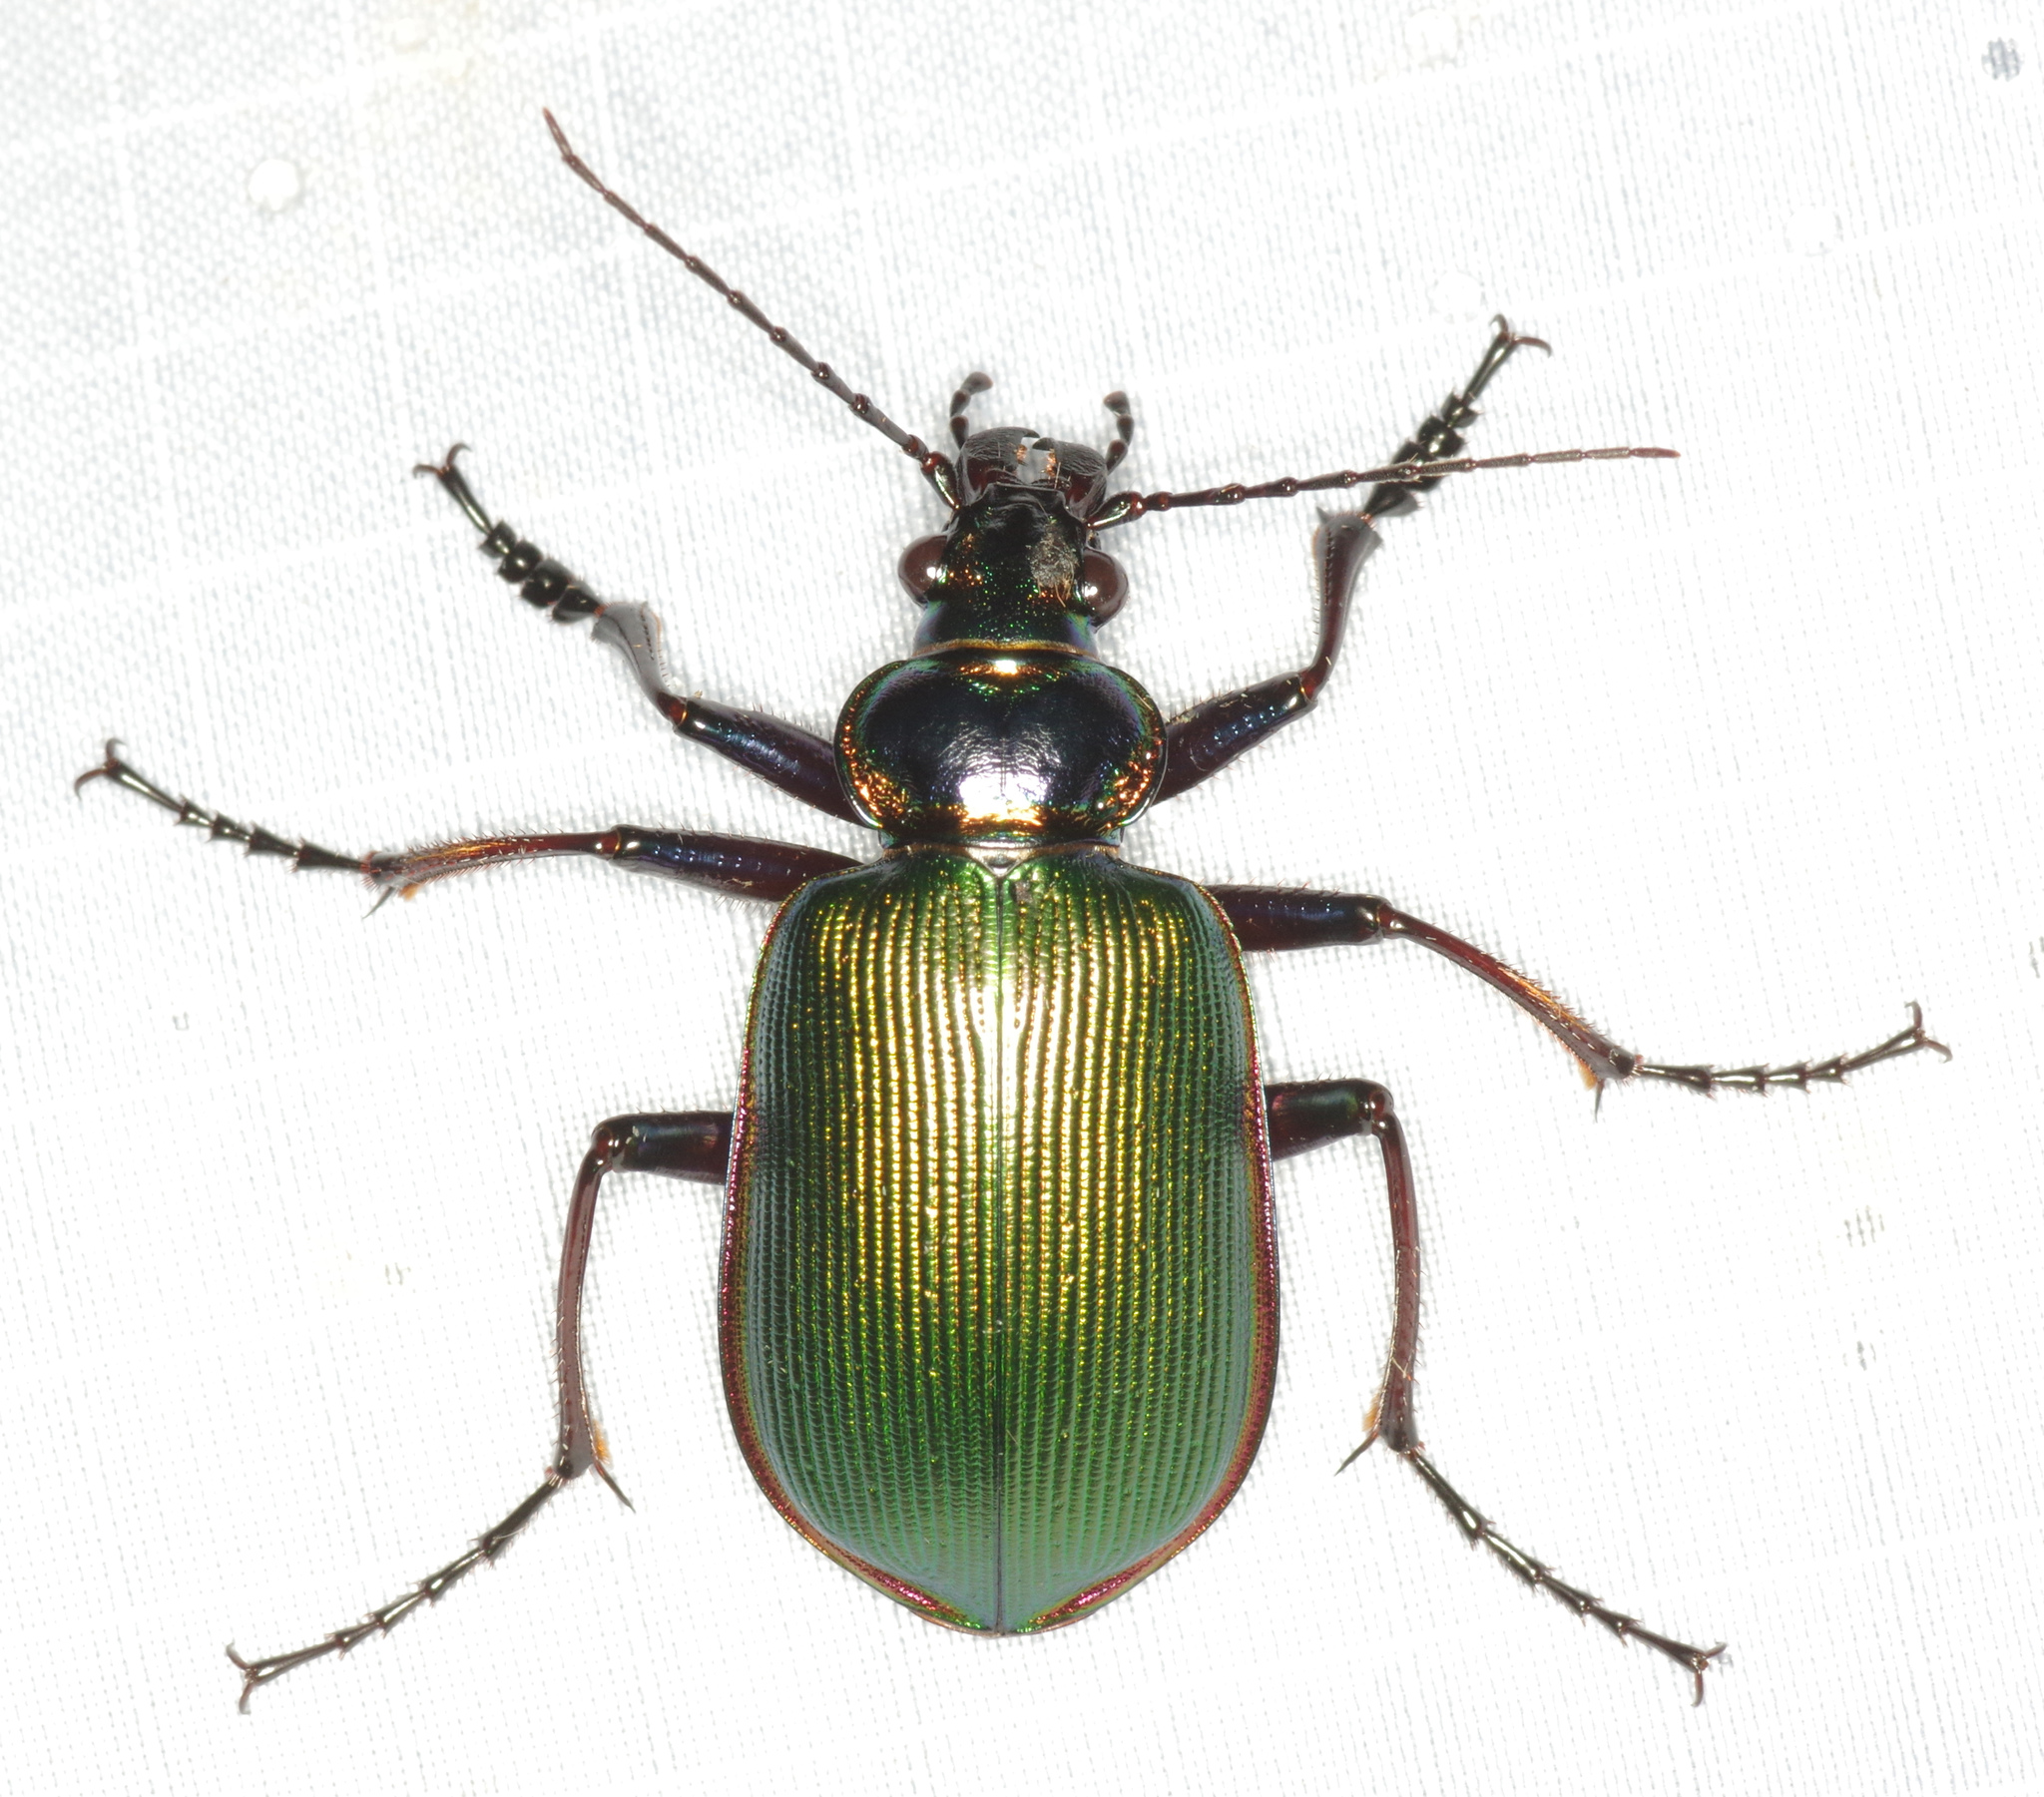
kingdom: Animalia
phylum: Arthropoda
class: Insecta
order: Coleoptera
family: Carabidae
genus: Calosoma
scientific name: Calosoma scrutator
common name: Fiery searcher beetle
